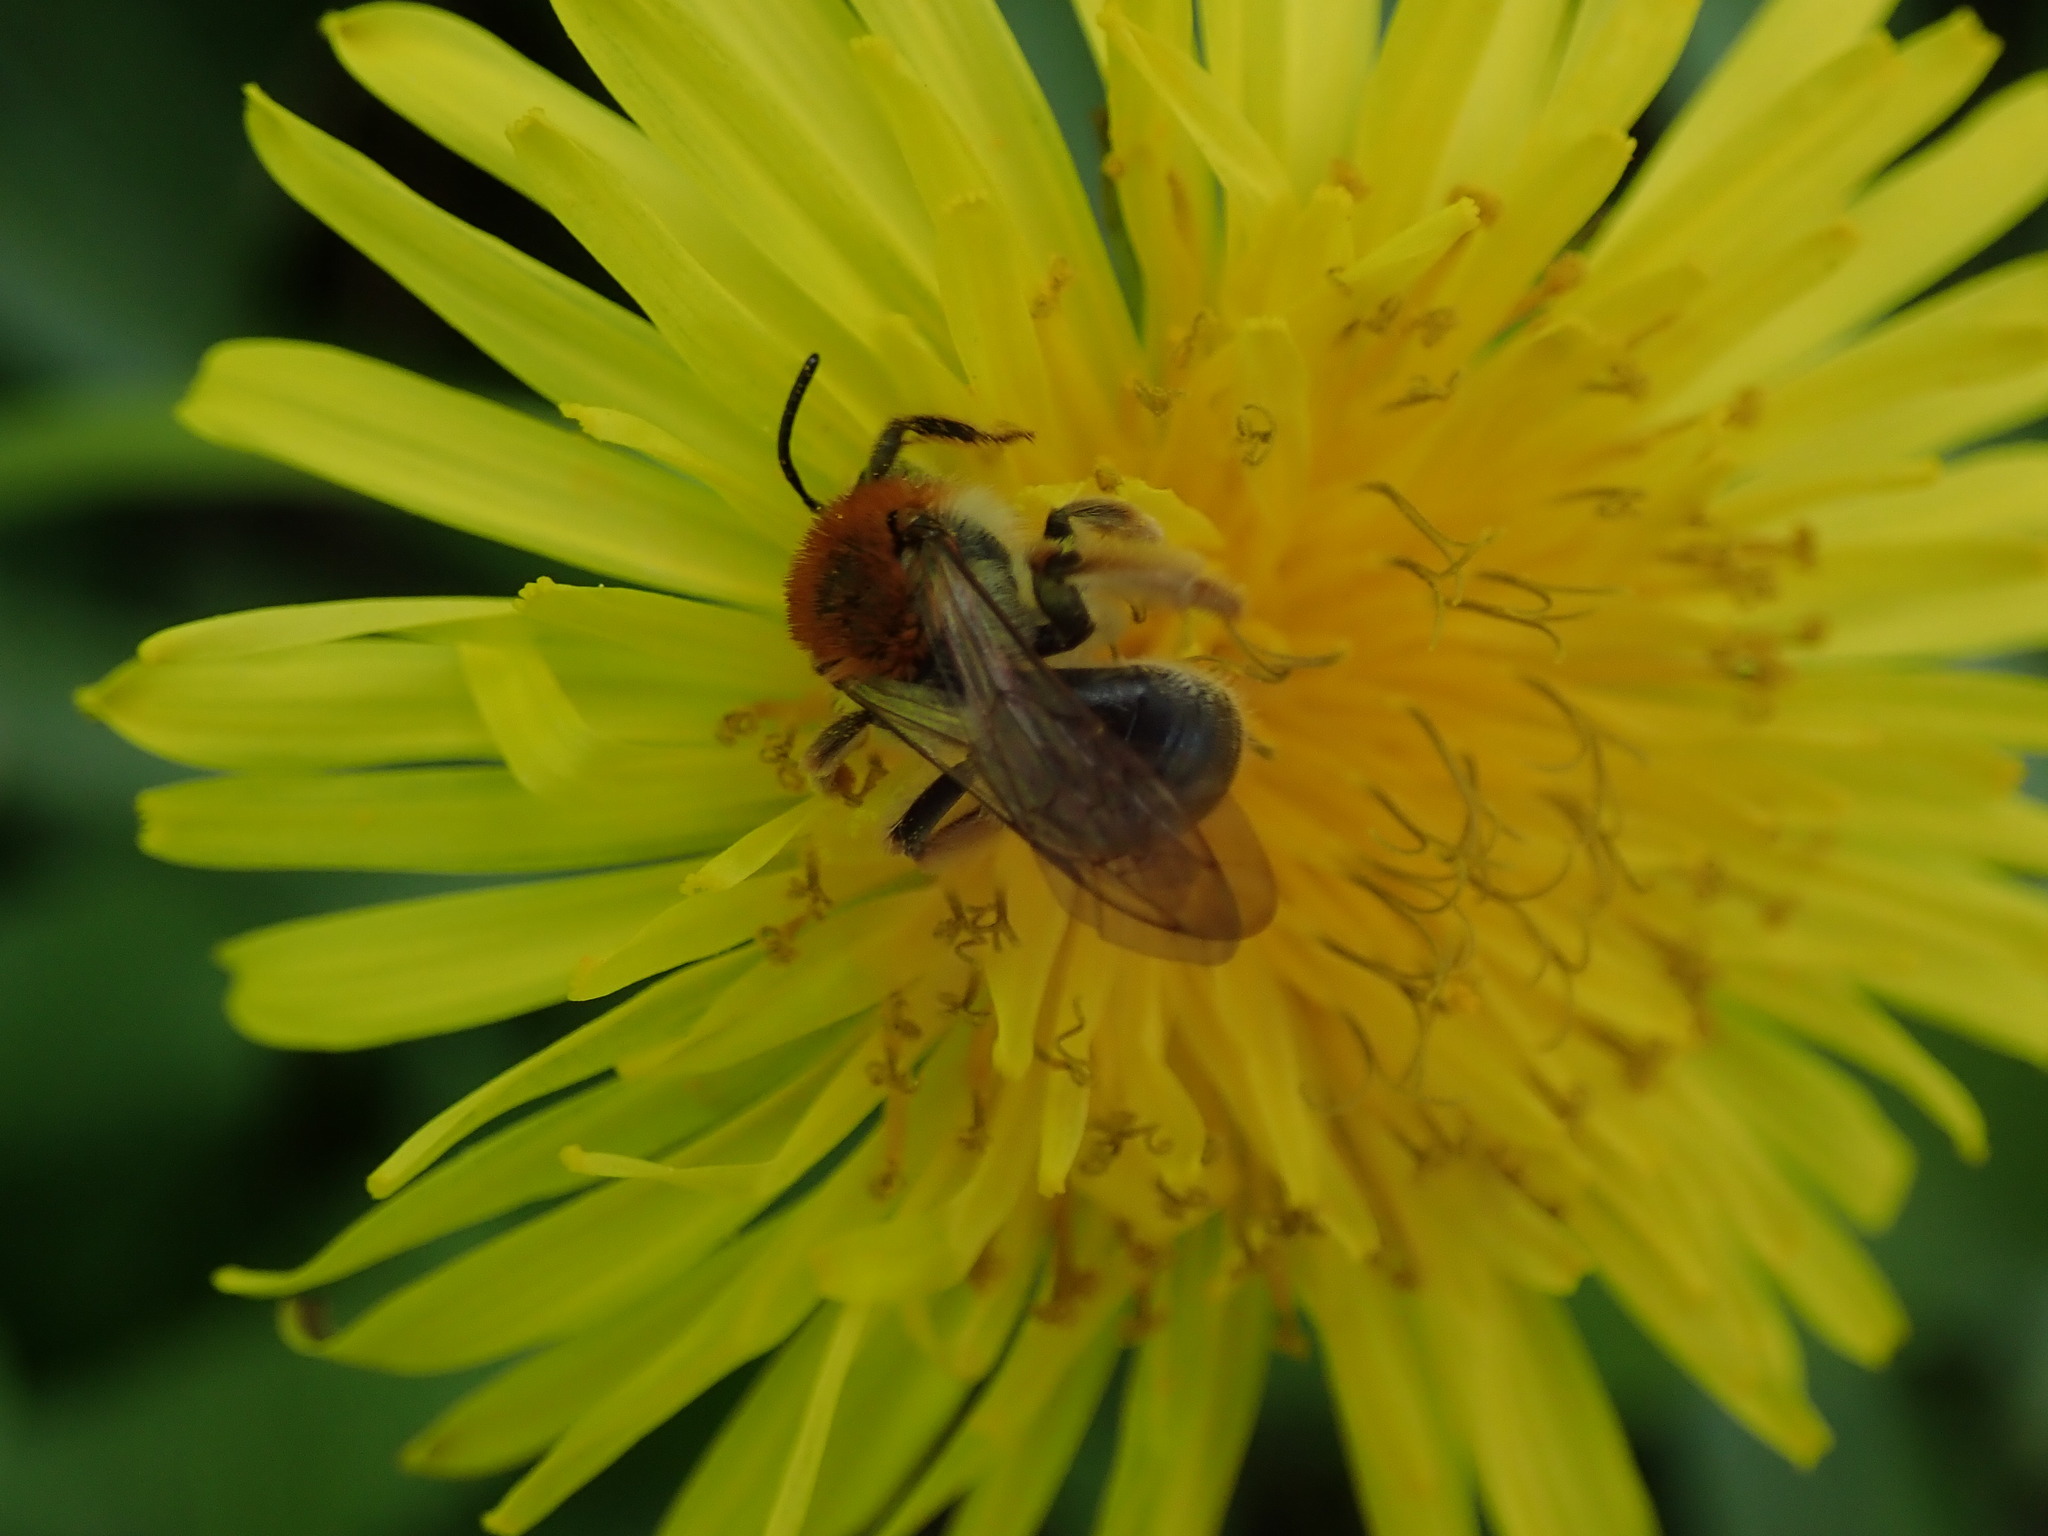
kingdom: Animalia
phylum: Arthropoda
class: Insecta
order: Hymenoptera
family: Andrenidae
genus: Andrena
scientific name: Andrena haemorrhoa
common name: Early mining bee
